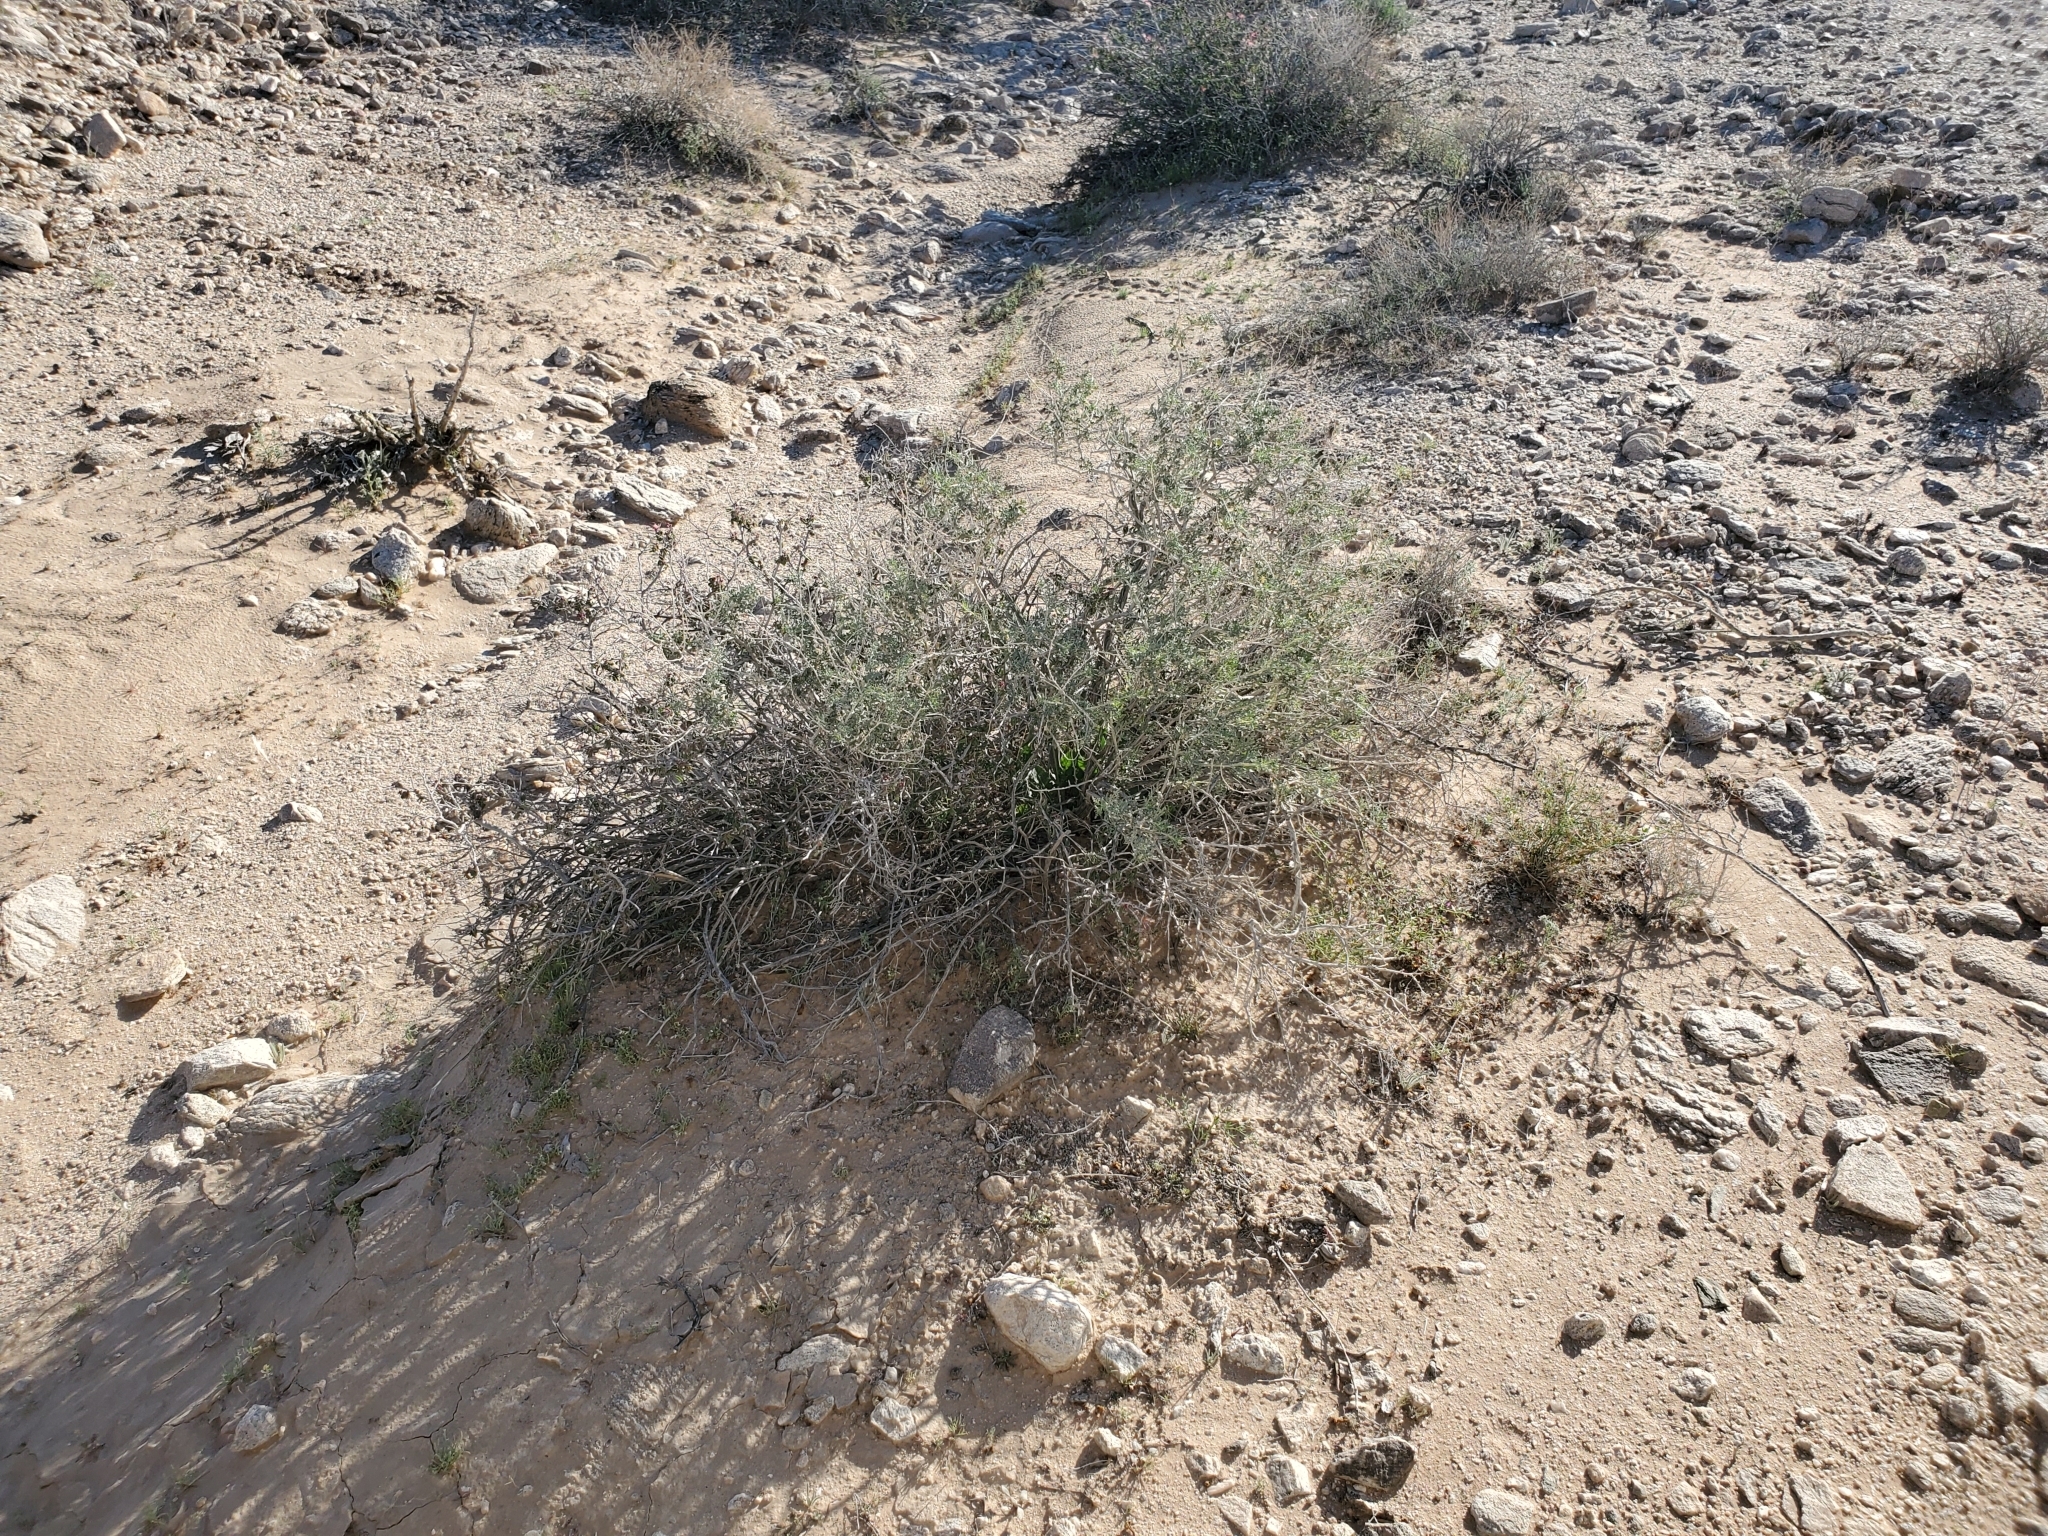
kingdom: Plantae
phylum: Tracheophyta
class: Magnoliopsida
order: Asterales
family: Asteraceae
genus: Ambrosia
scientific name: Ambrosia dumosa
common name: Bur-sage
